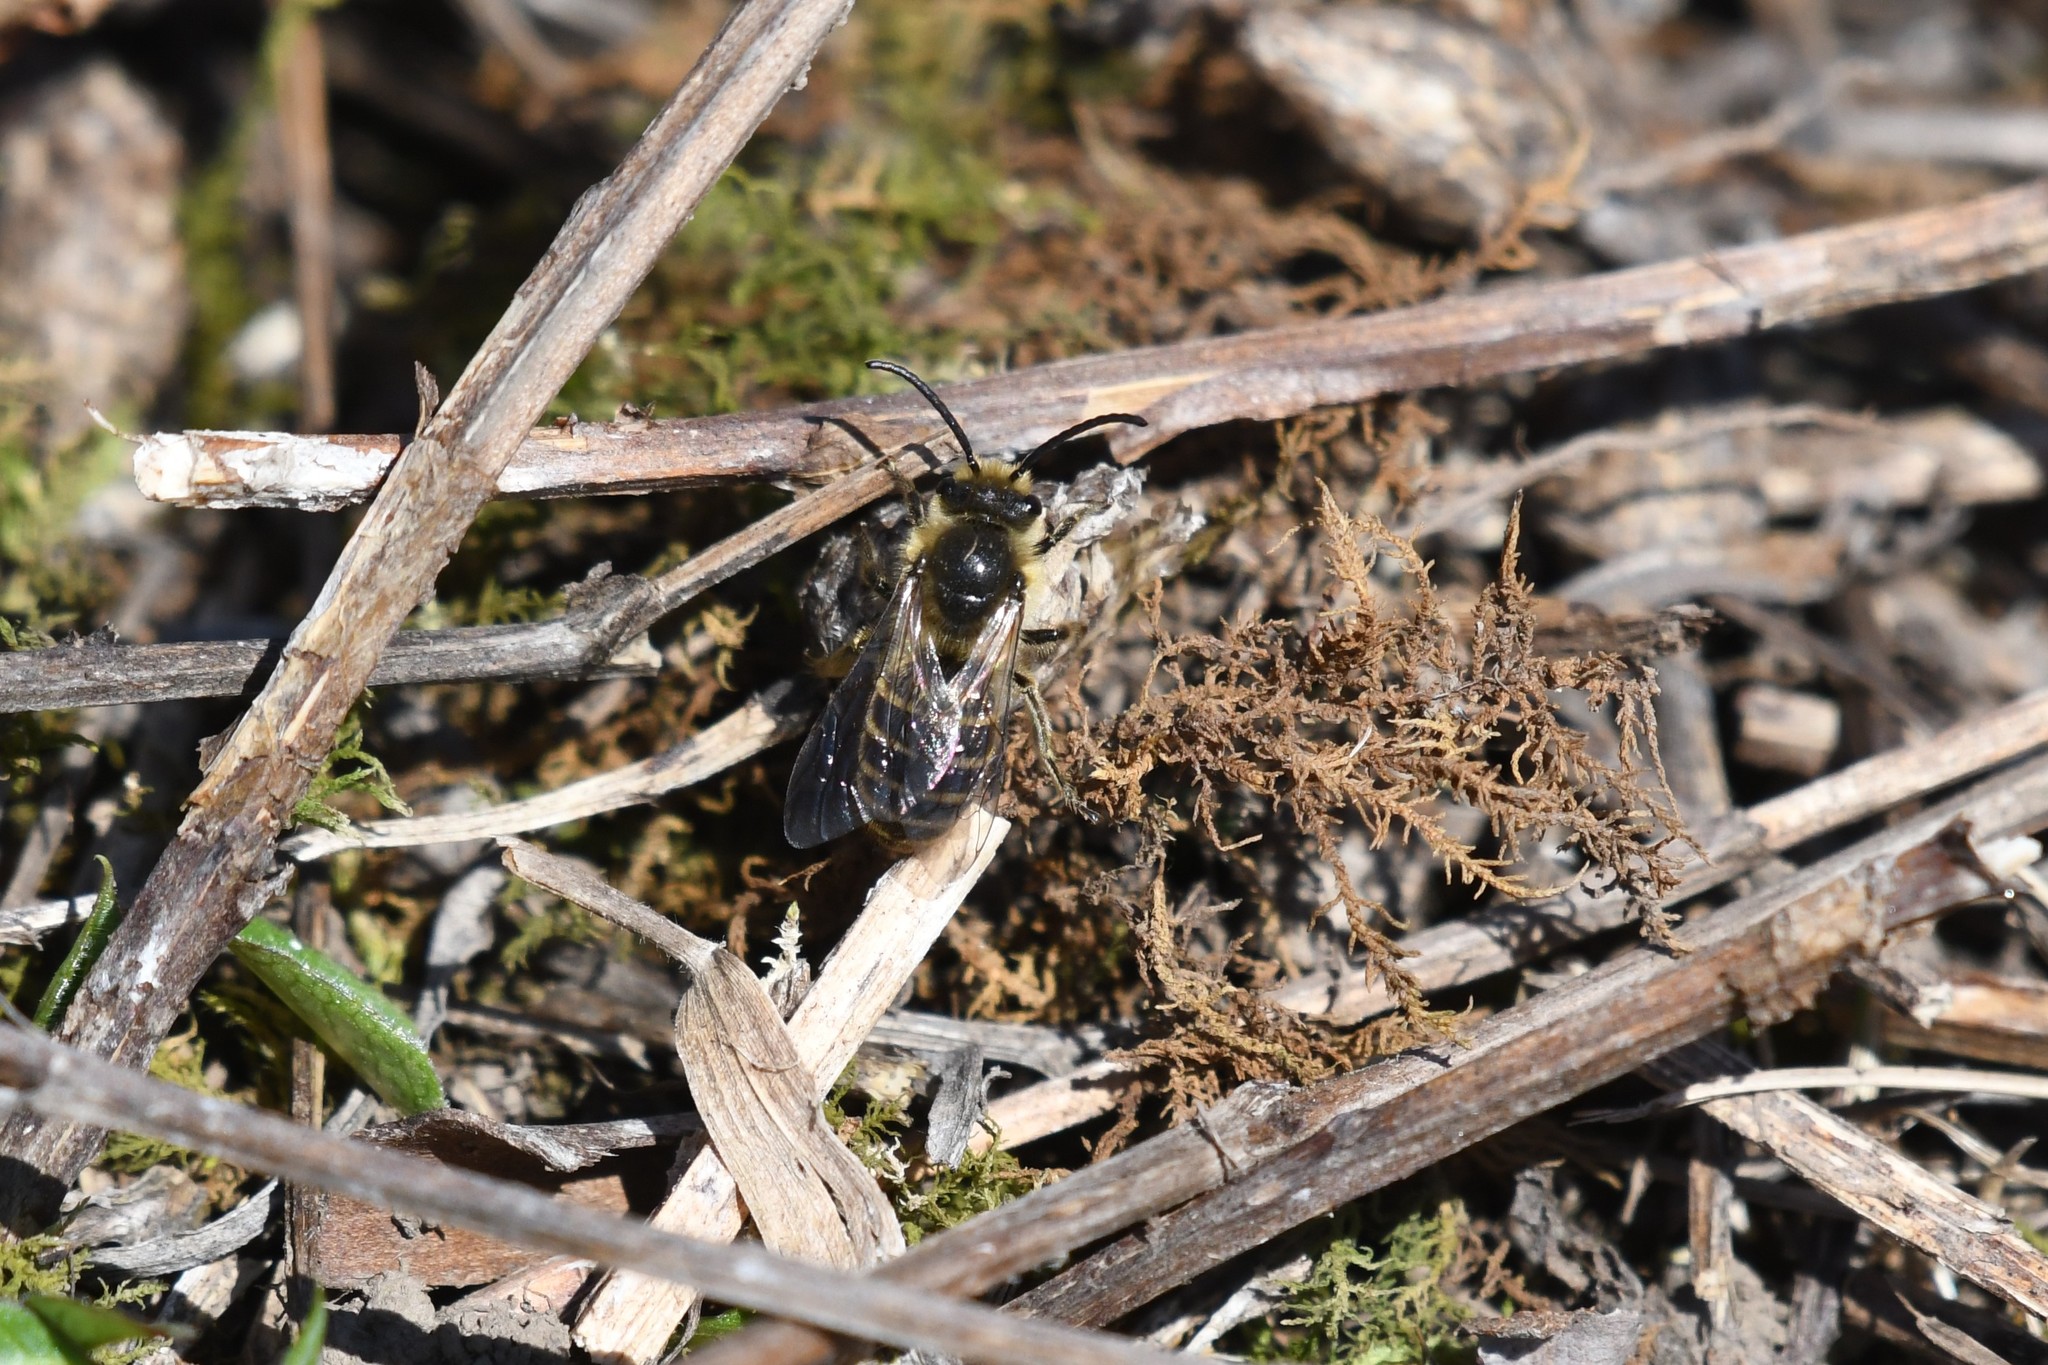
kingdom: Animalia
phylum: Arthropoda
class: Insecta
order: Hymenoptera
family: Colletidae
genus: Colletes
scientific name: Colletes inaequalis
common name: Unequal cellophane bee
